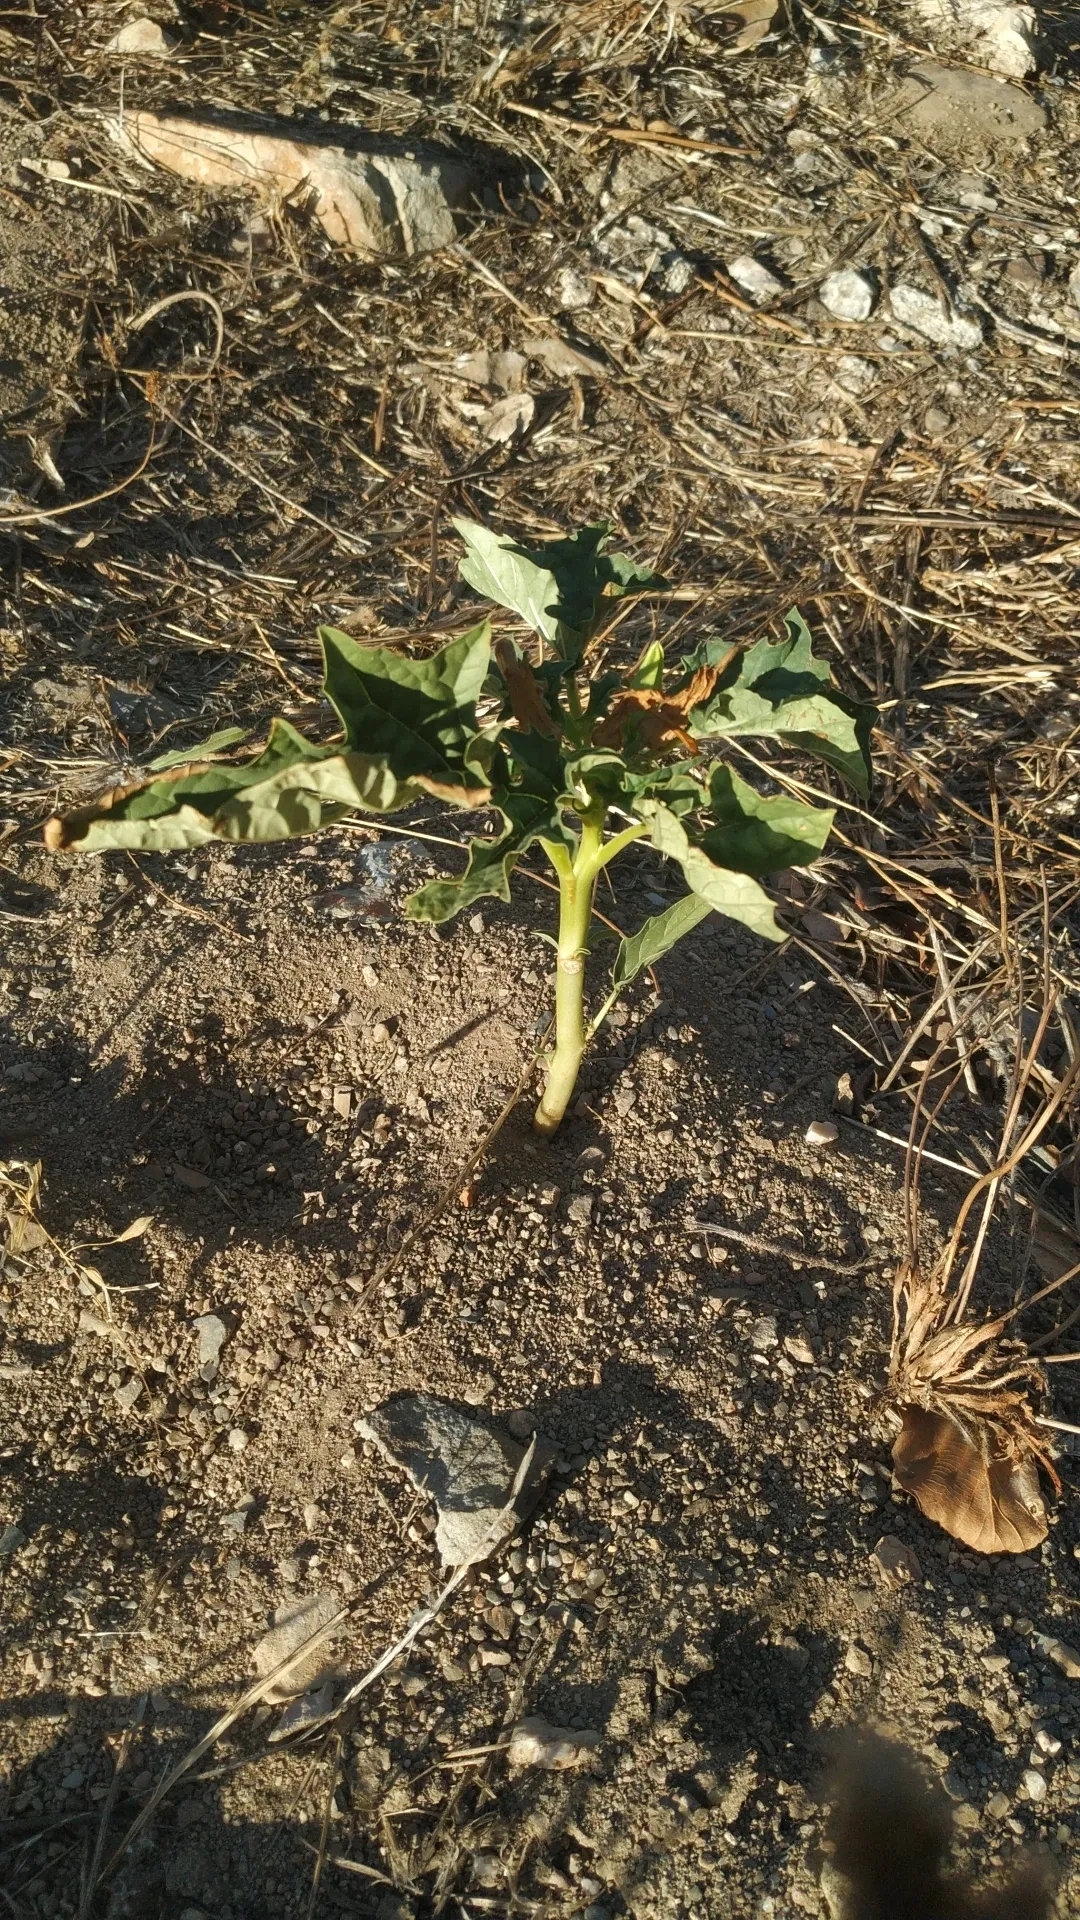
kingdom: Plantae
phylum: Tracheophyta
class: Magnoliopsida
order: Solanales
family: Solanaceae
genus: Datura
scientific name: Datura stramonium
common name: Thorn-apple
